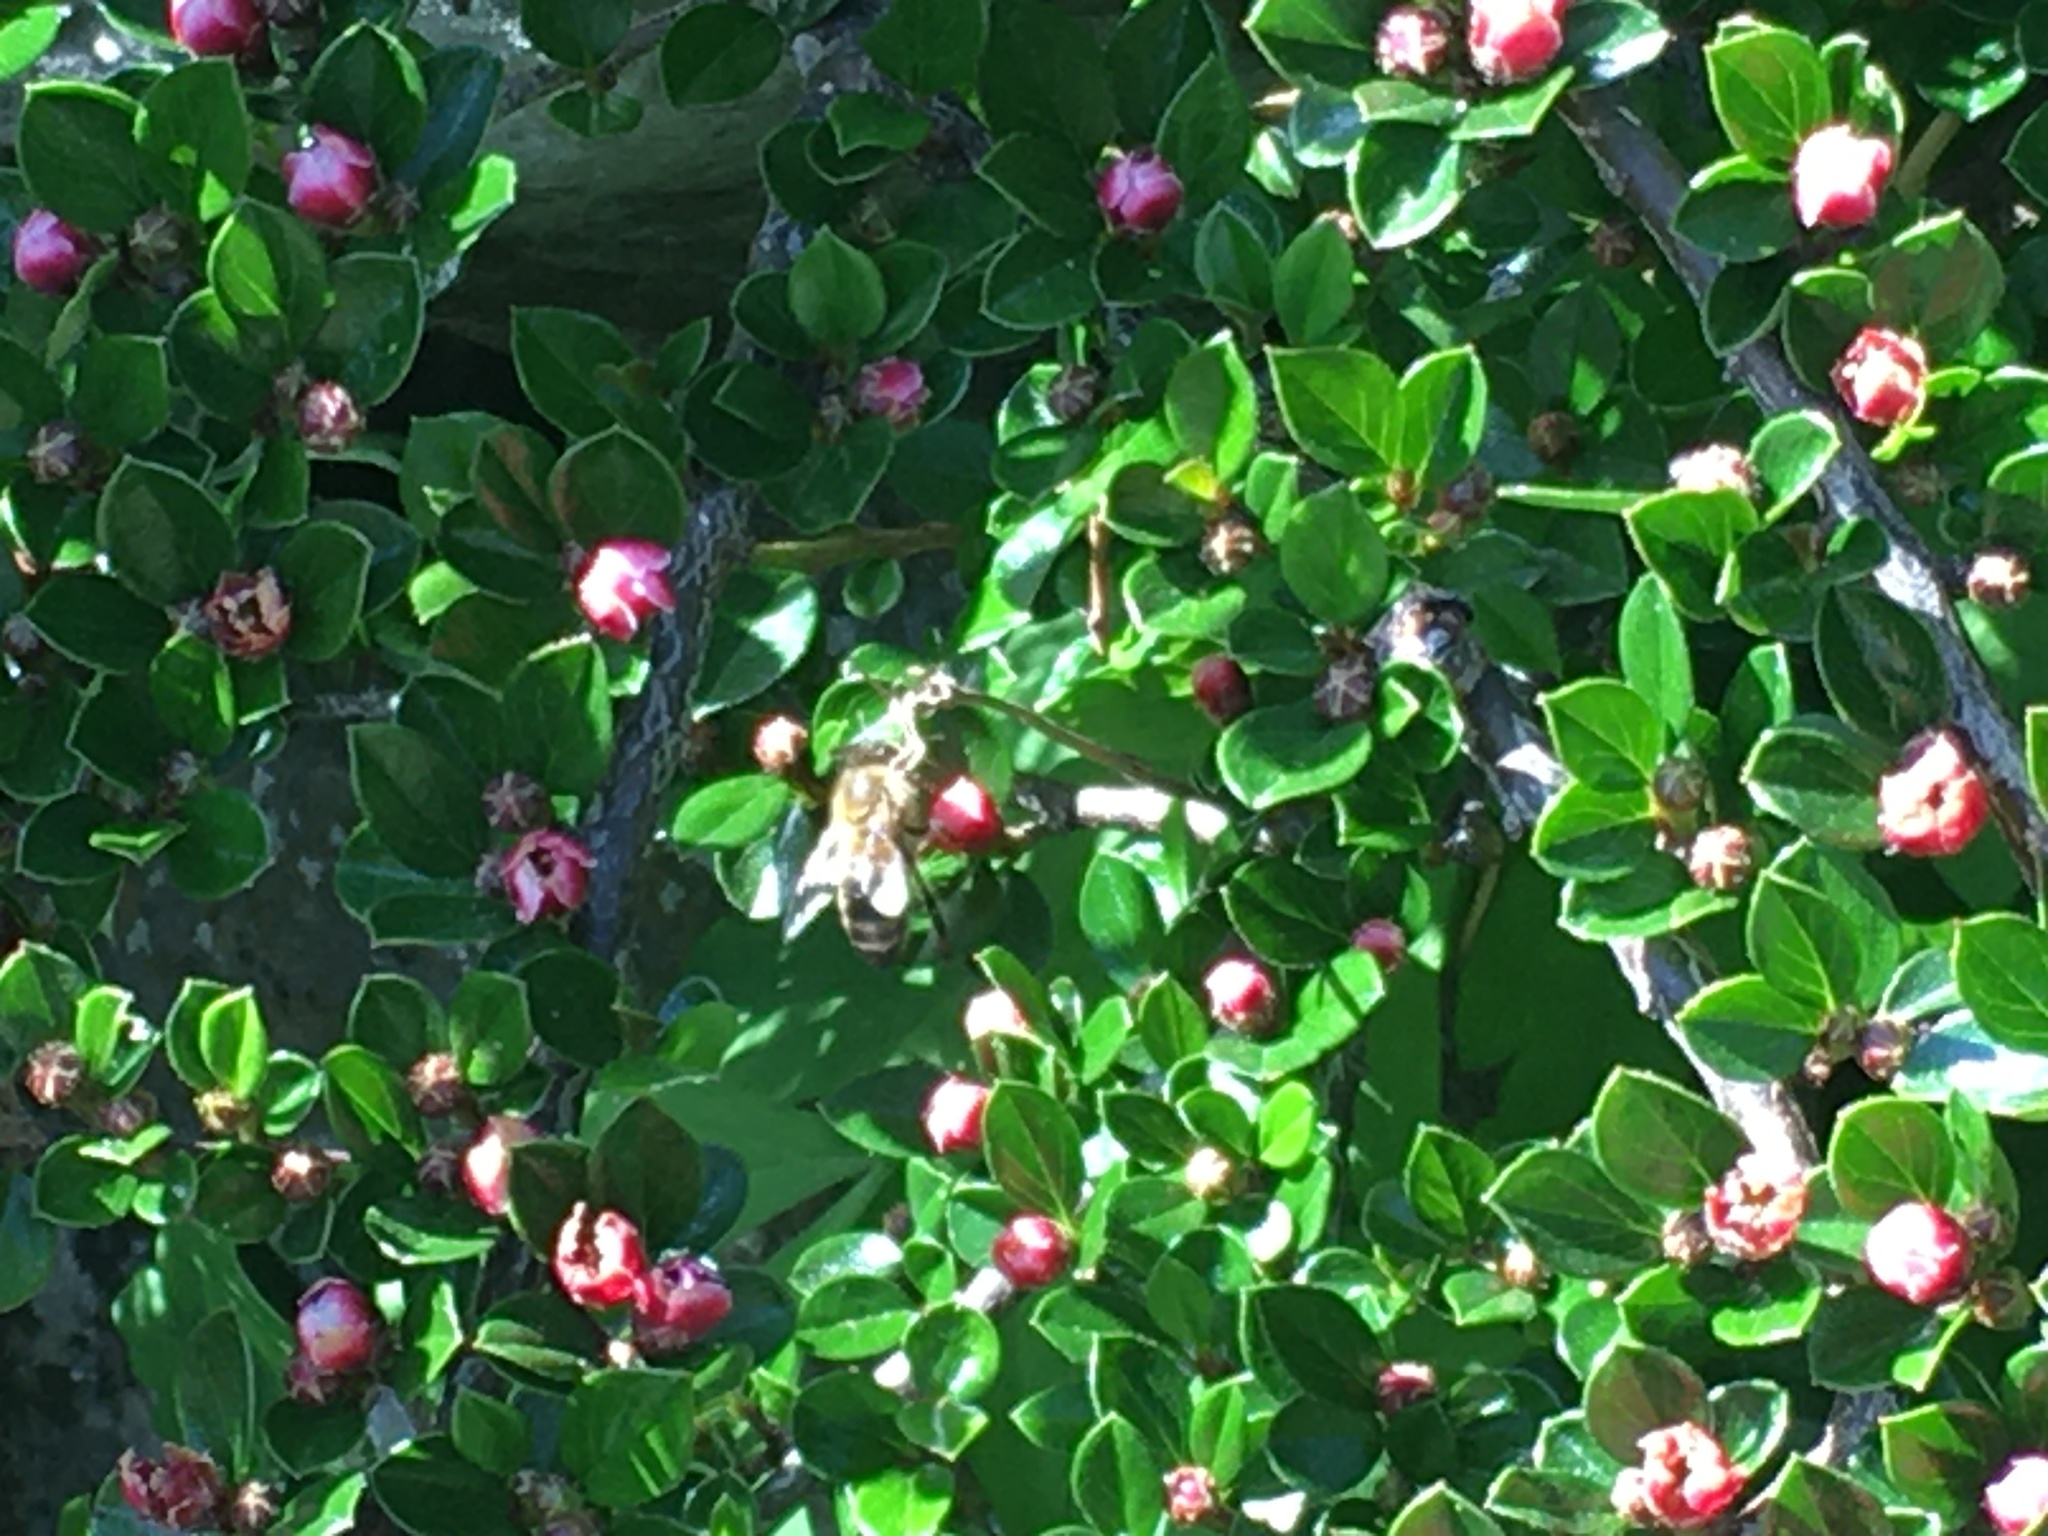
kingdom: Animalia
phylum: Arthropoda
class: Insecta
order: Hymenoptera
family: Apidae
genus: Apis
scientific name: Apis mellifera
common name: Honey bee
